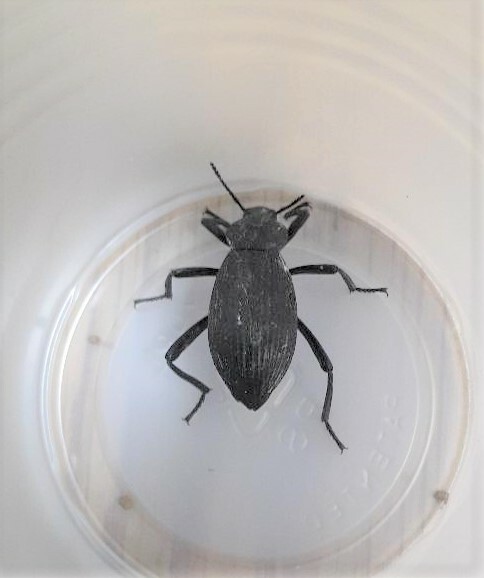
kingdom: Animalia
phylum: Arthropoda
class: Insecta
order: Coleoptera
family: Tenebrionidae
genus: Eleodes
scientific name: Eleodes obscura
